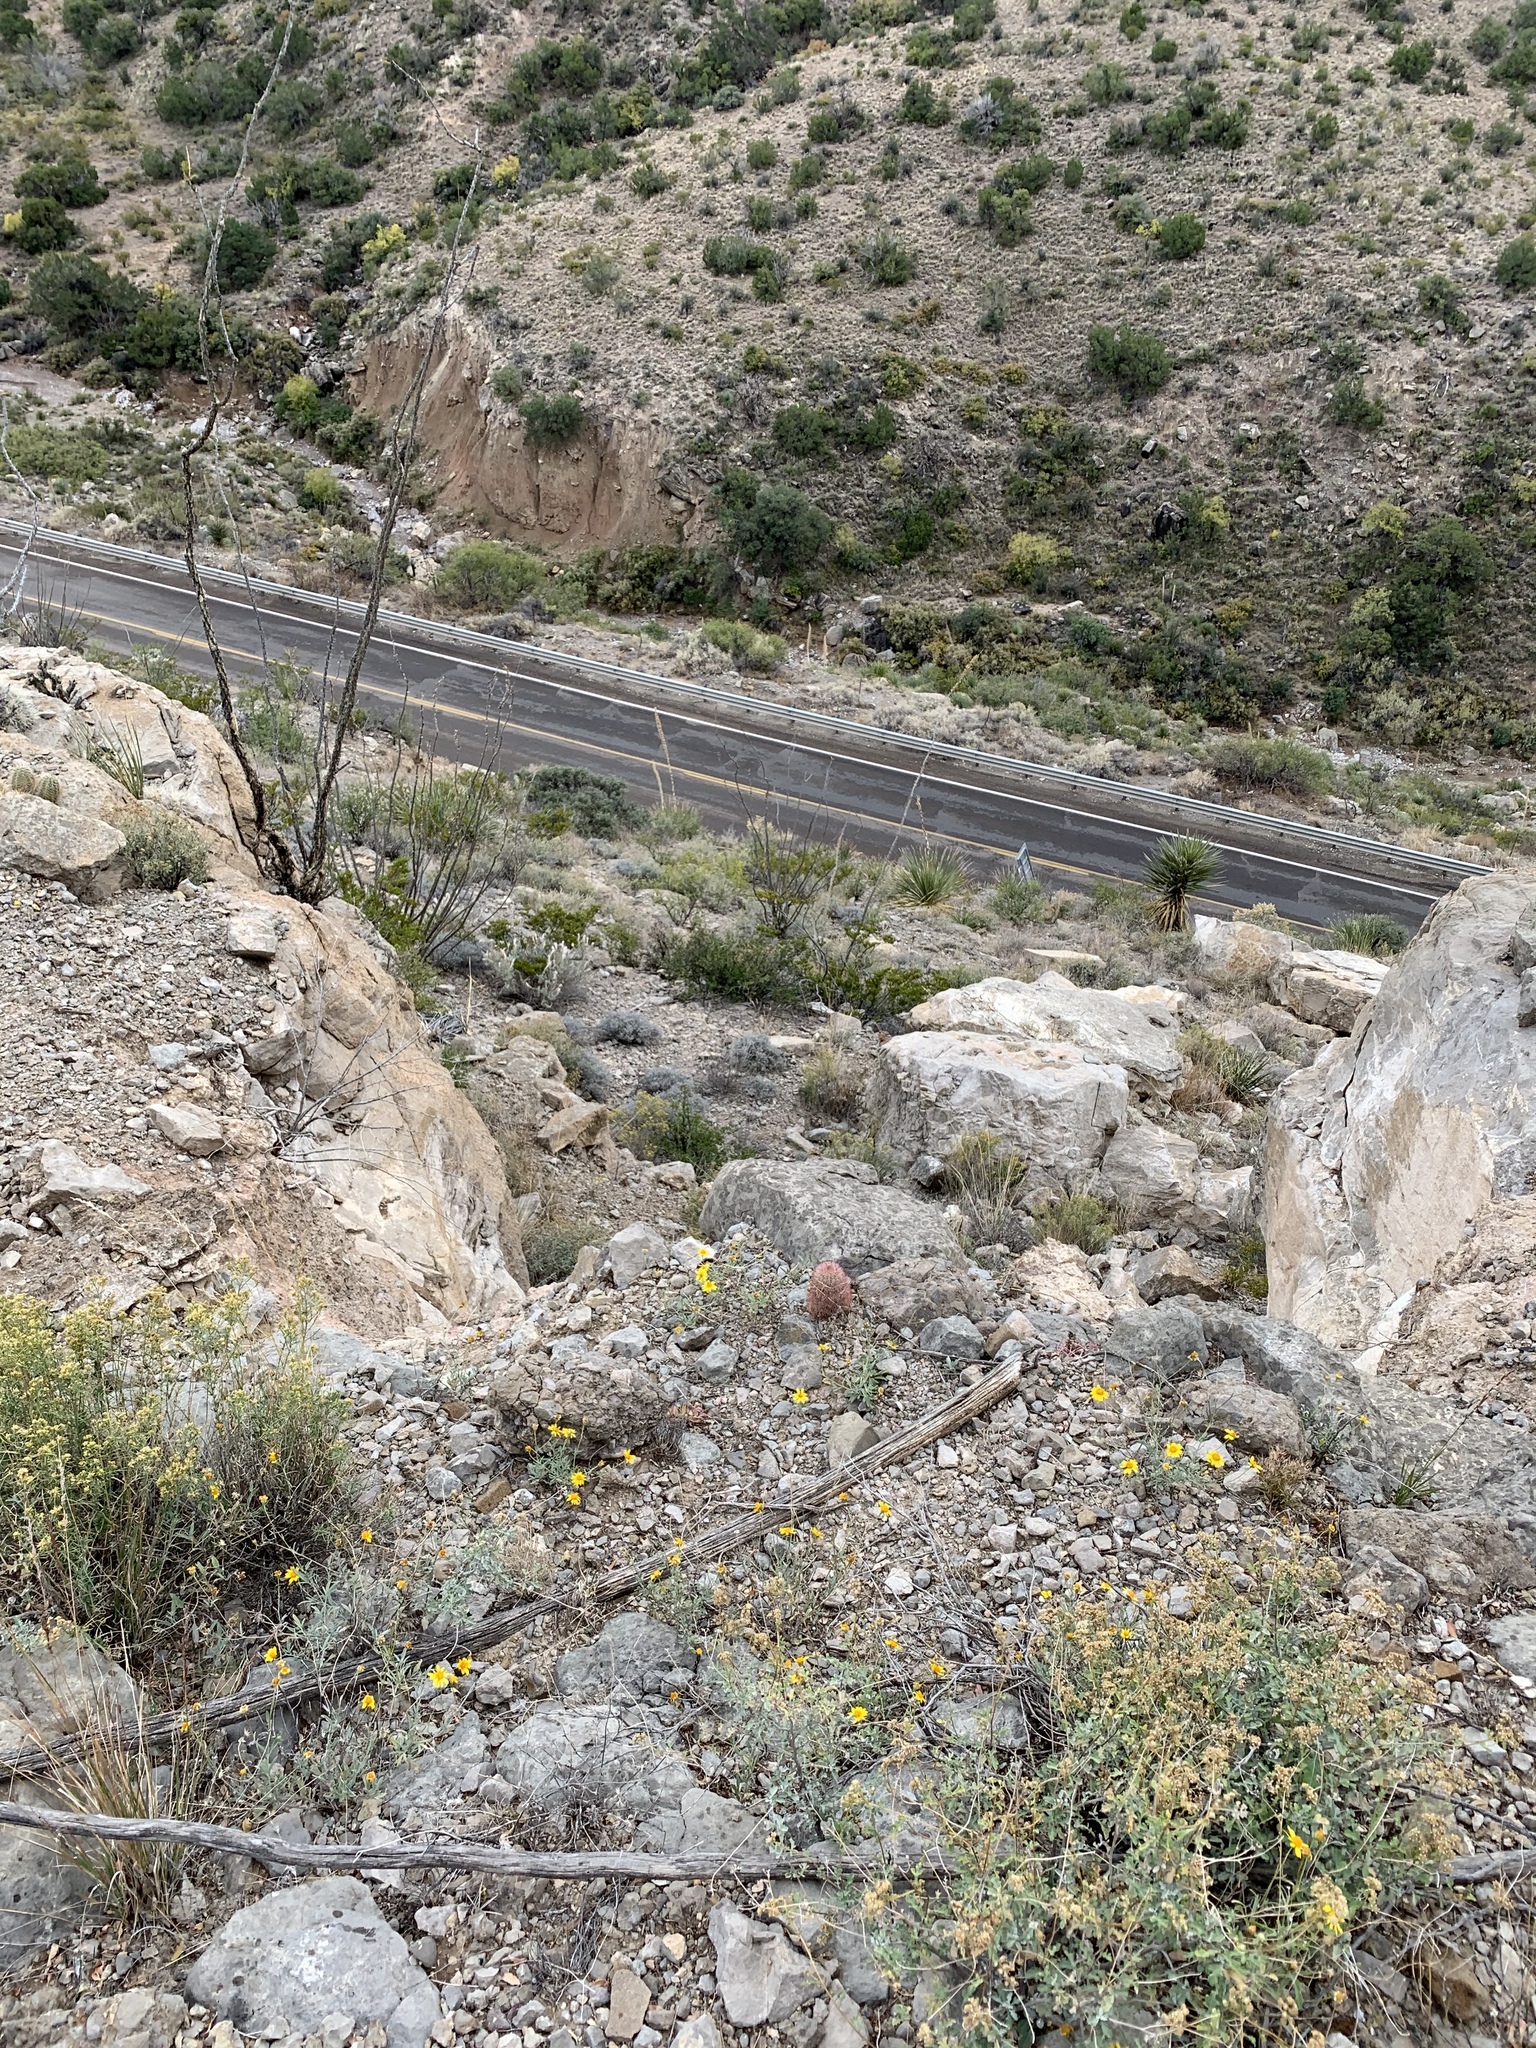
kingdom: Plantae
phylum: Tracheophyta
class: Magnoliopsida
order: Caryophyllales
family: Cactaceae
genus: Echinocereus
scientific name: Echinocereus dasyacanthus
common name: Spiny hedgehog cactus
